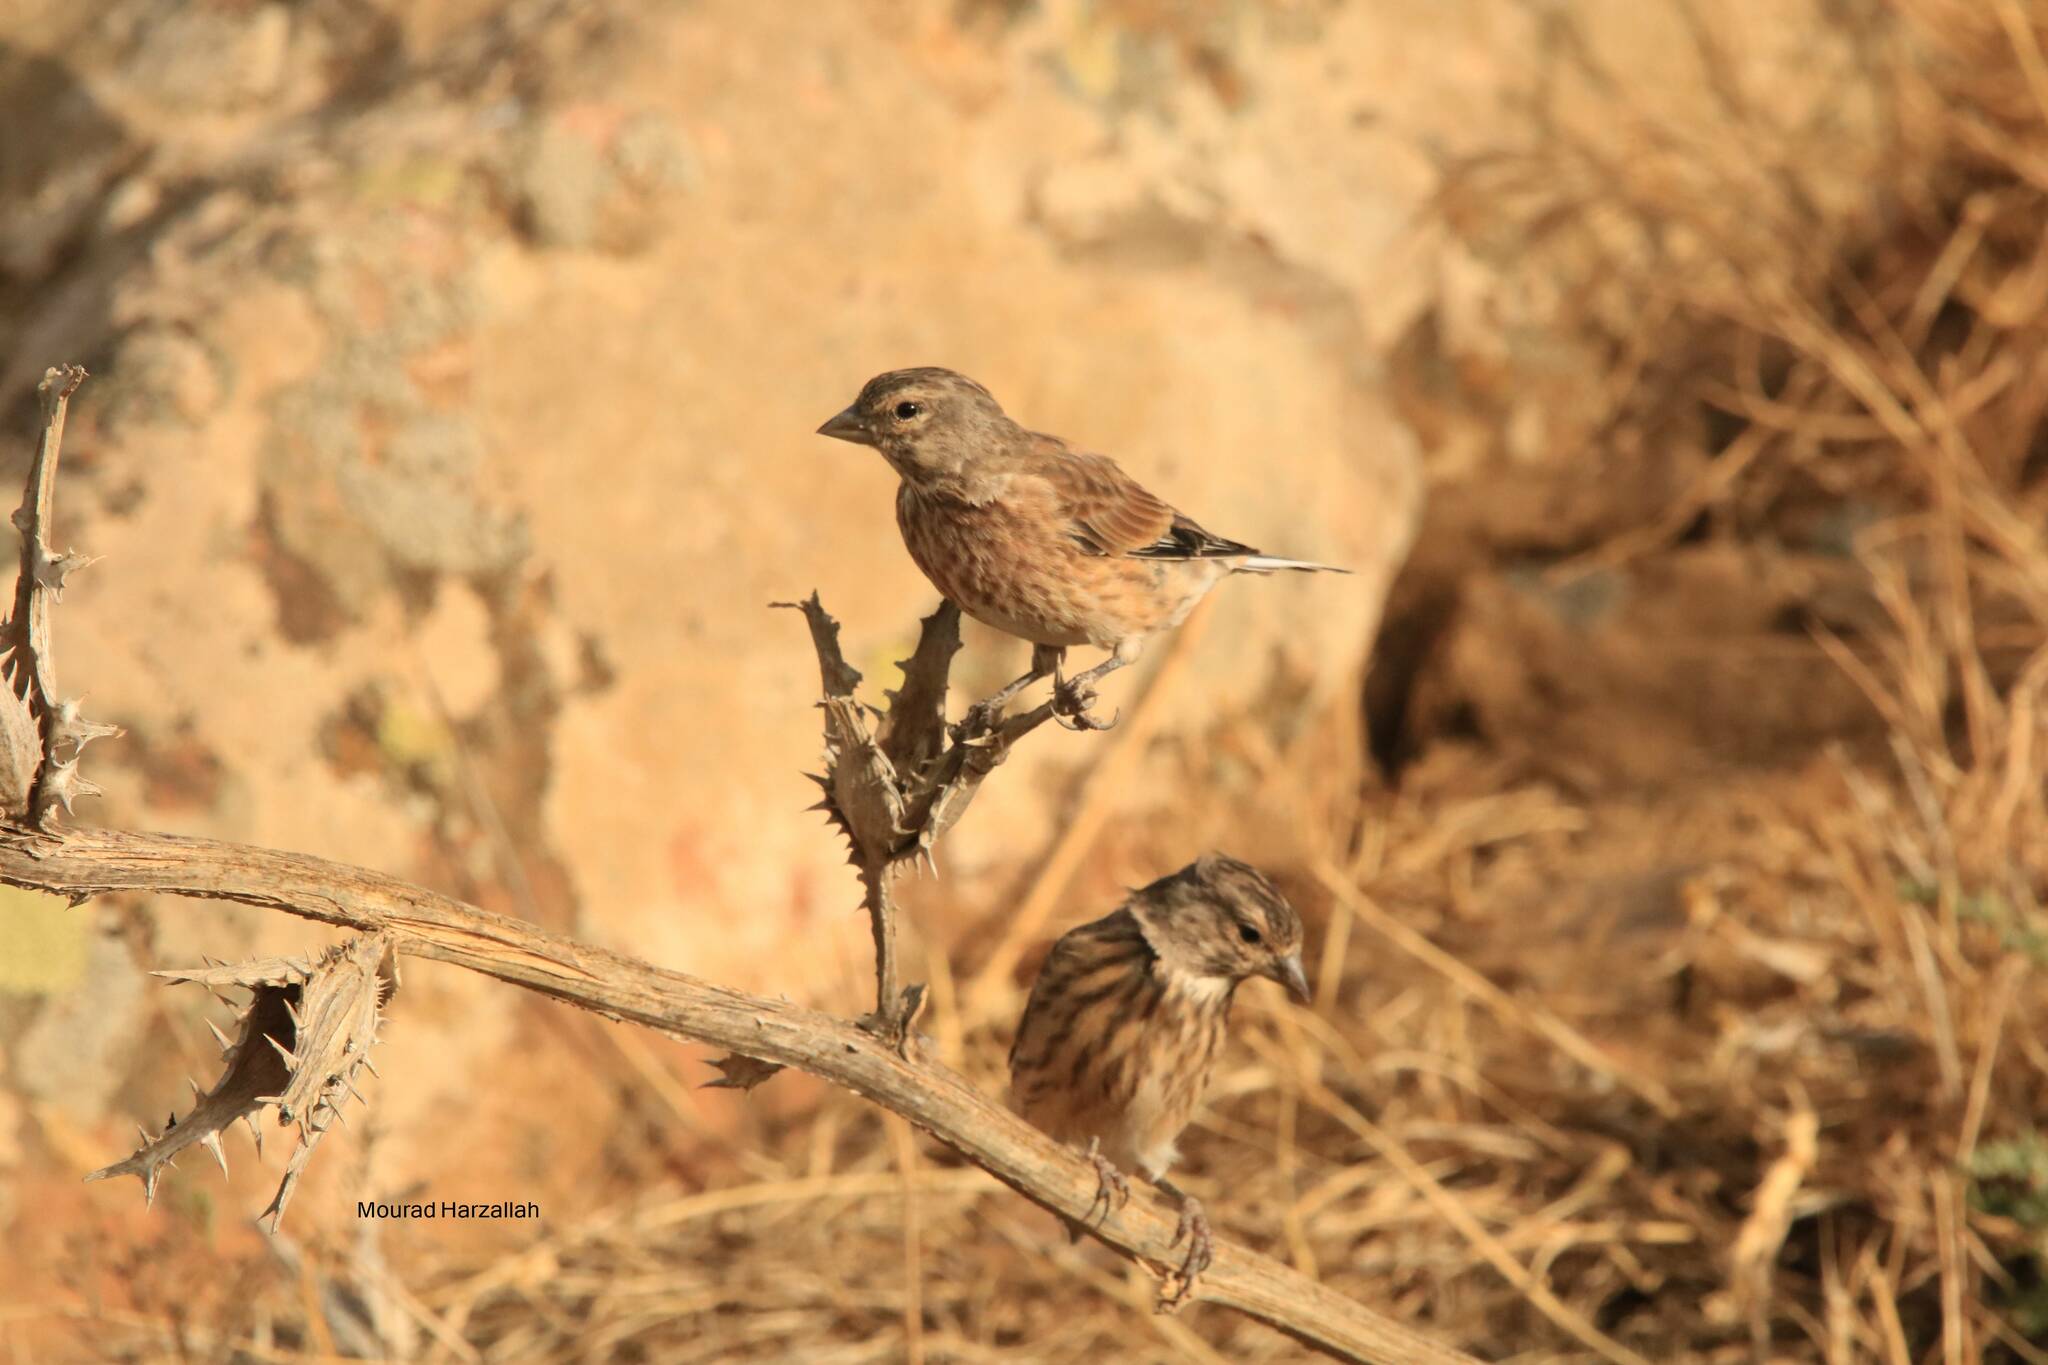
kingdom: Animalia
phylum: Chordata
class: Aves
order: Passeriformes
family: Fringillidae
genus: Linaria
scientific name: Linaria cannabina
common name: Common linnet
